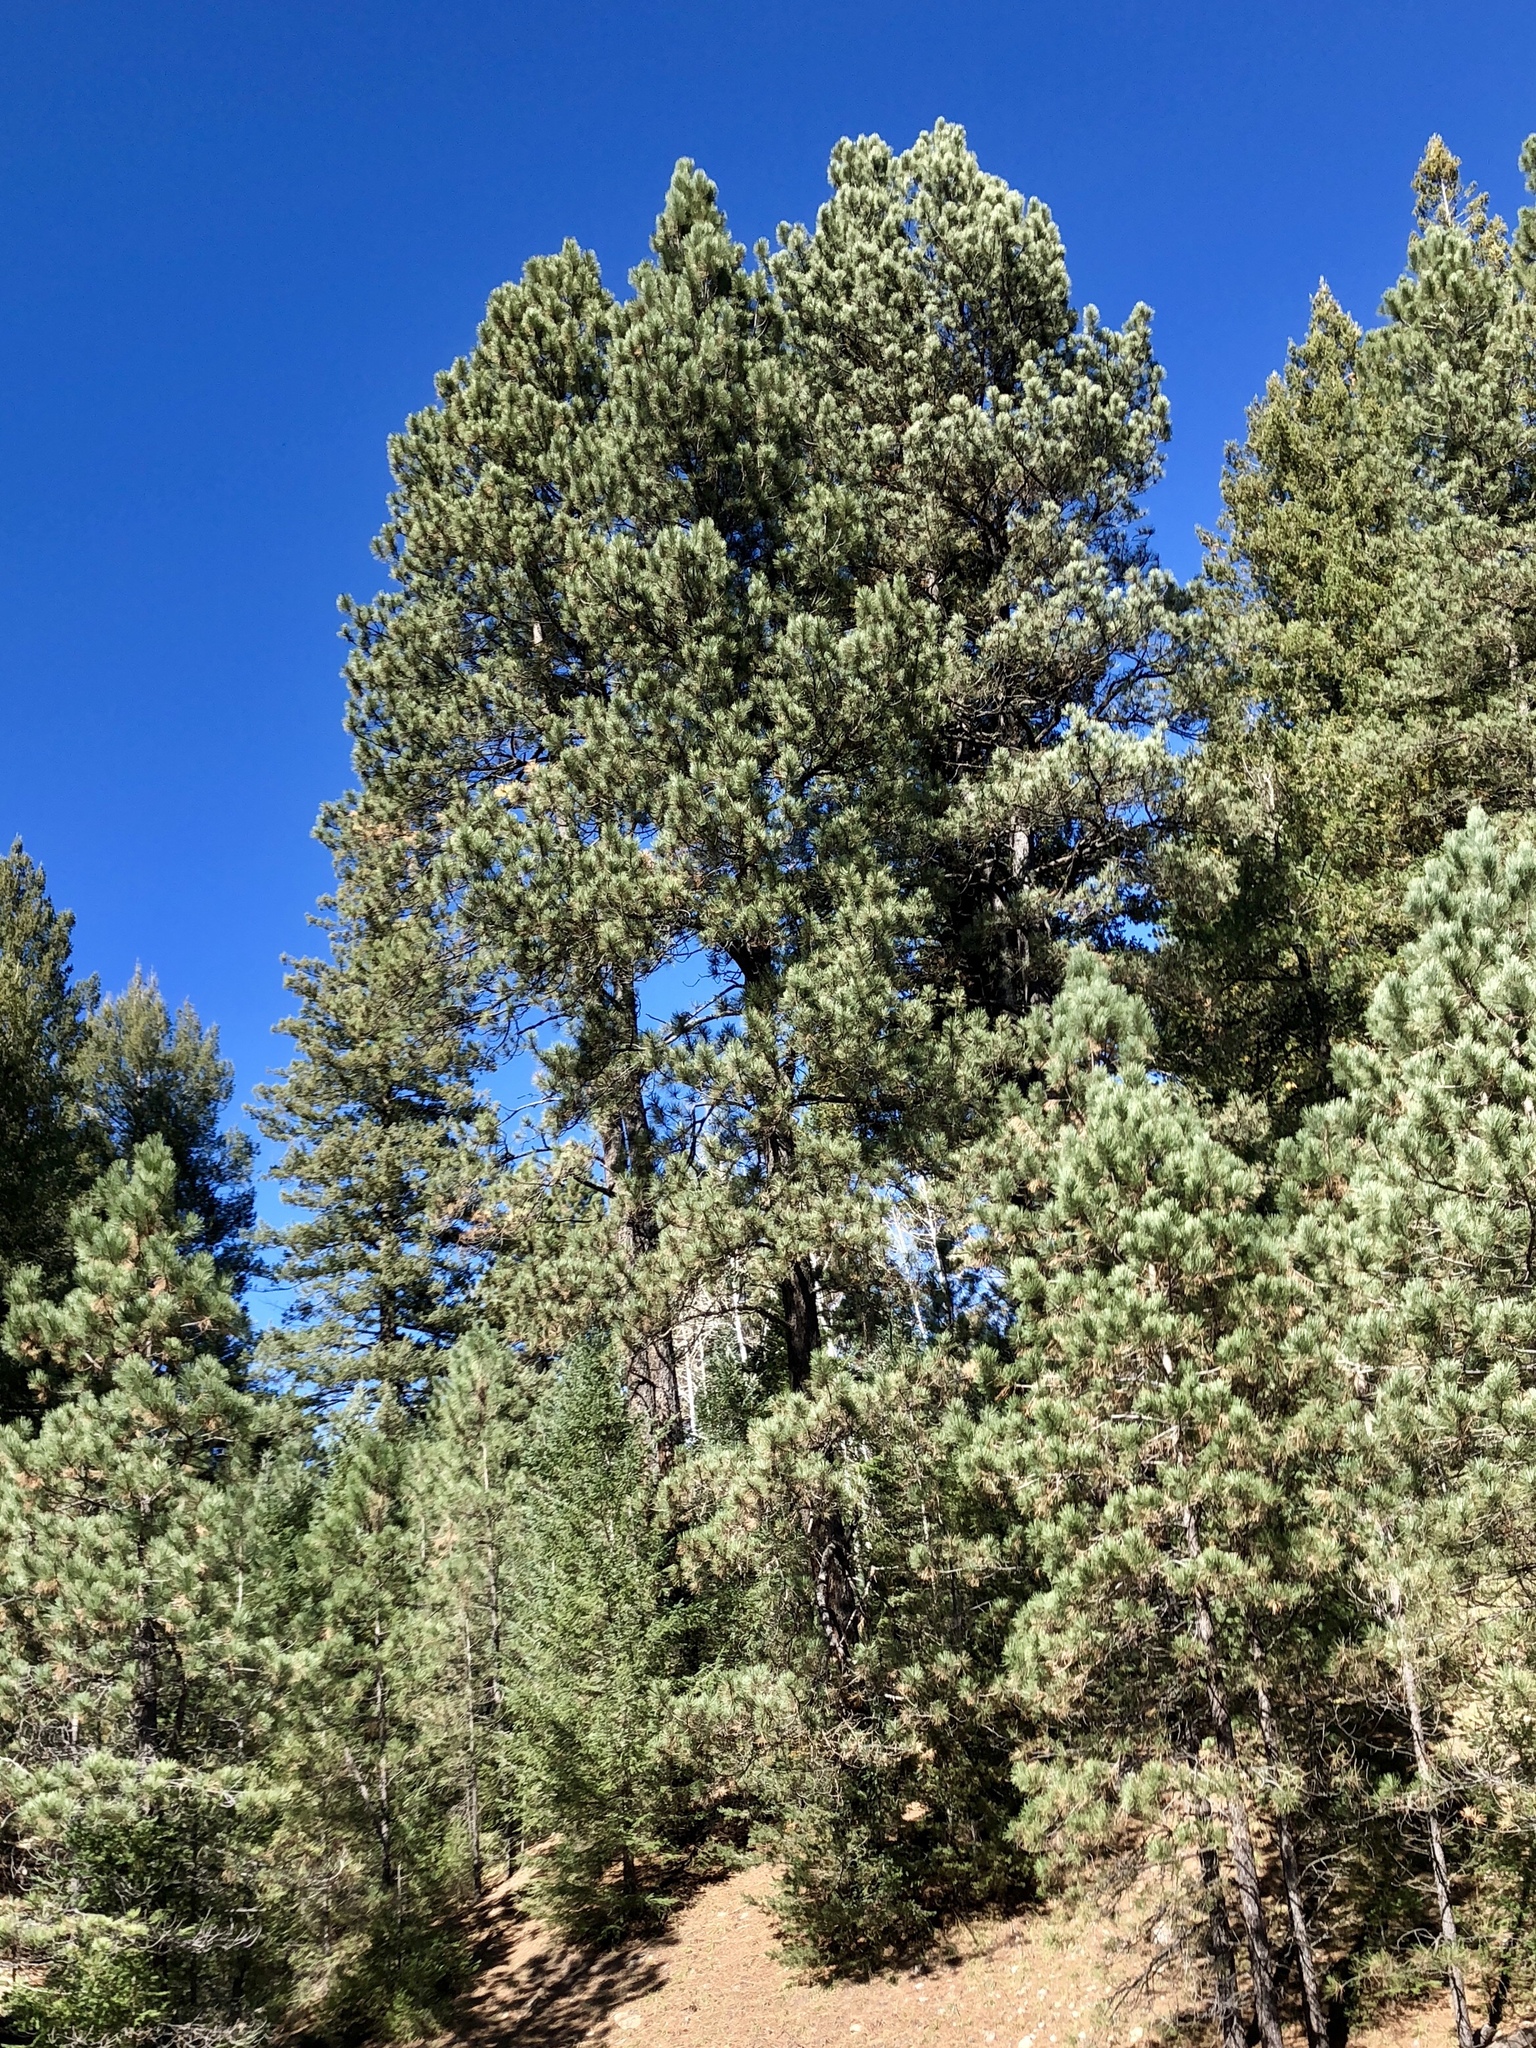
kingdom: Plantae
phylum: Tracheophyta
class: Pinopsida
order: Pinales
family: Pinaceae
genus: Pinus
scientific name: Pinus ponderosa
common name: Western yellow-pine
